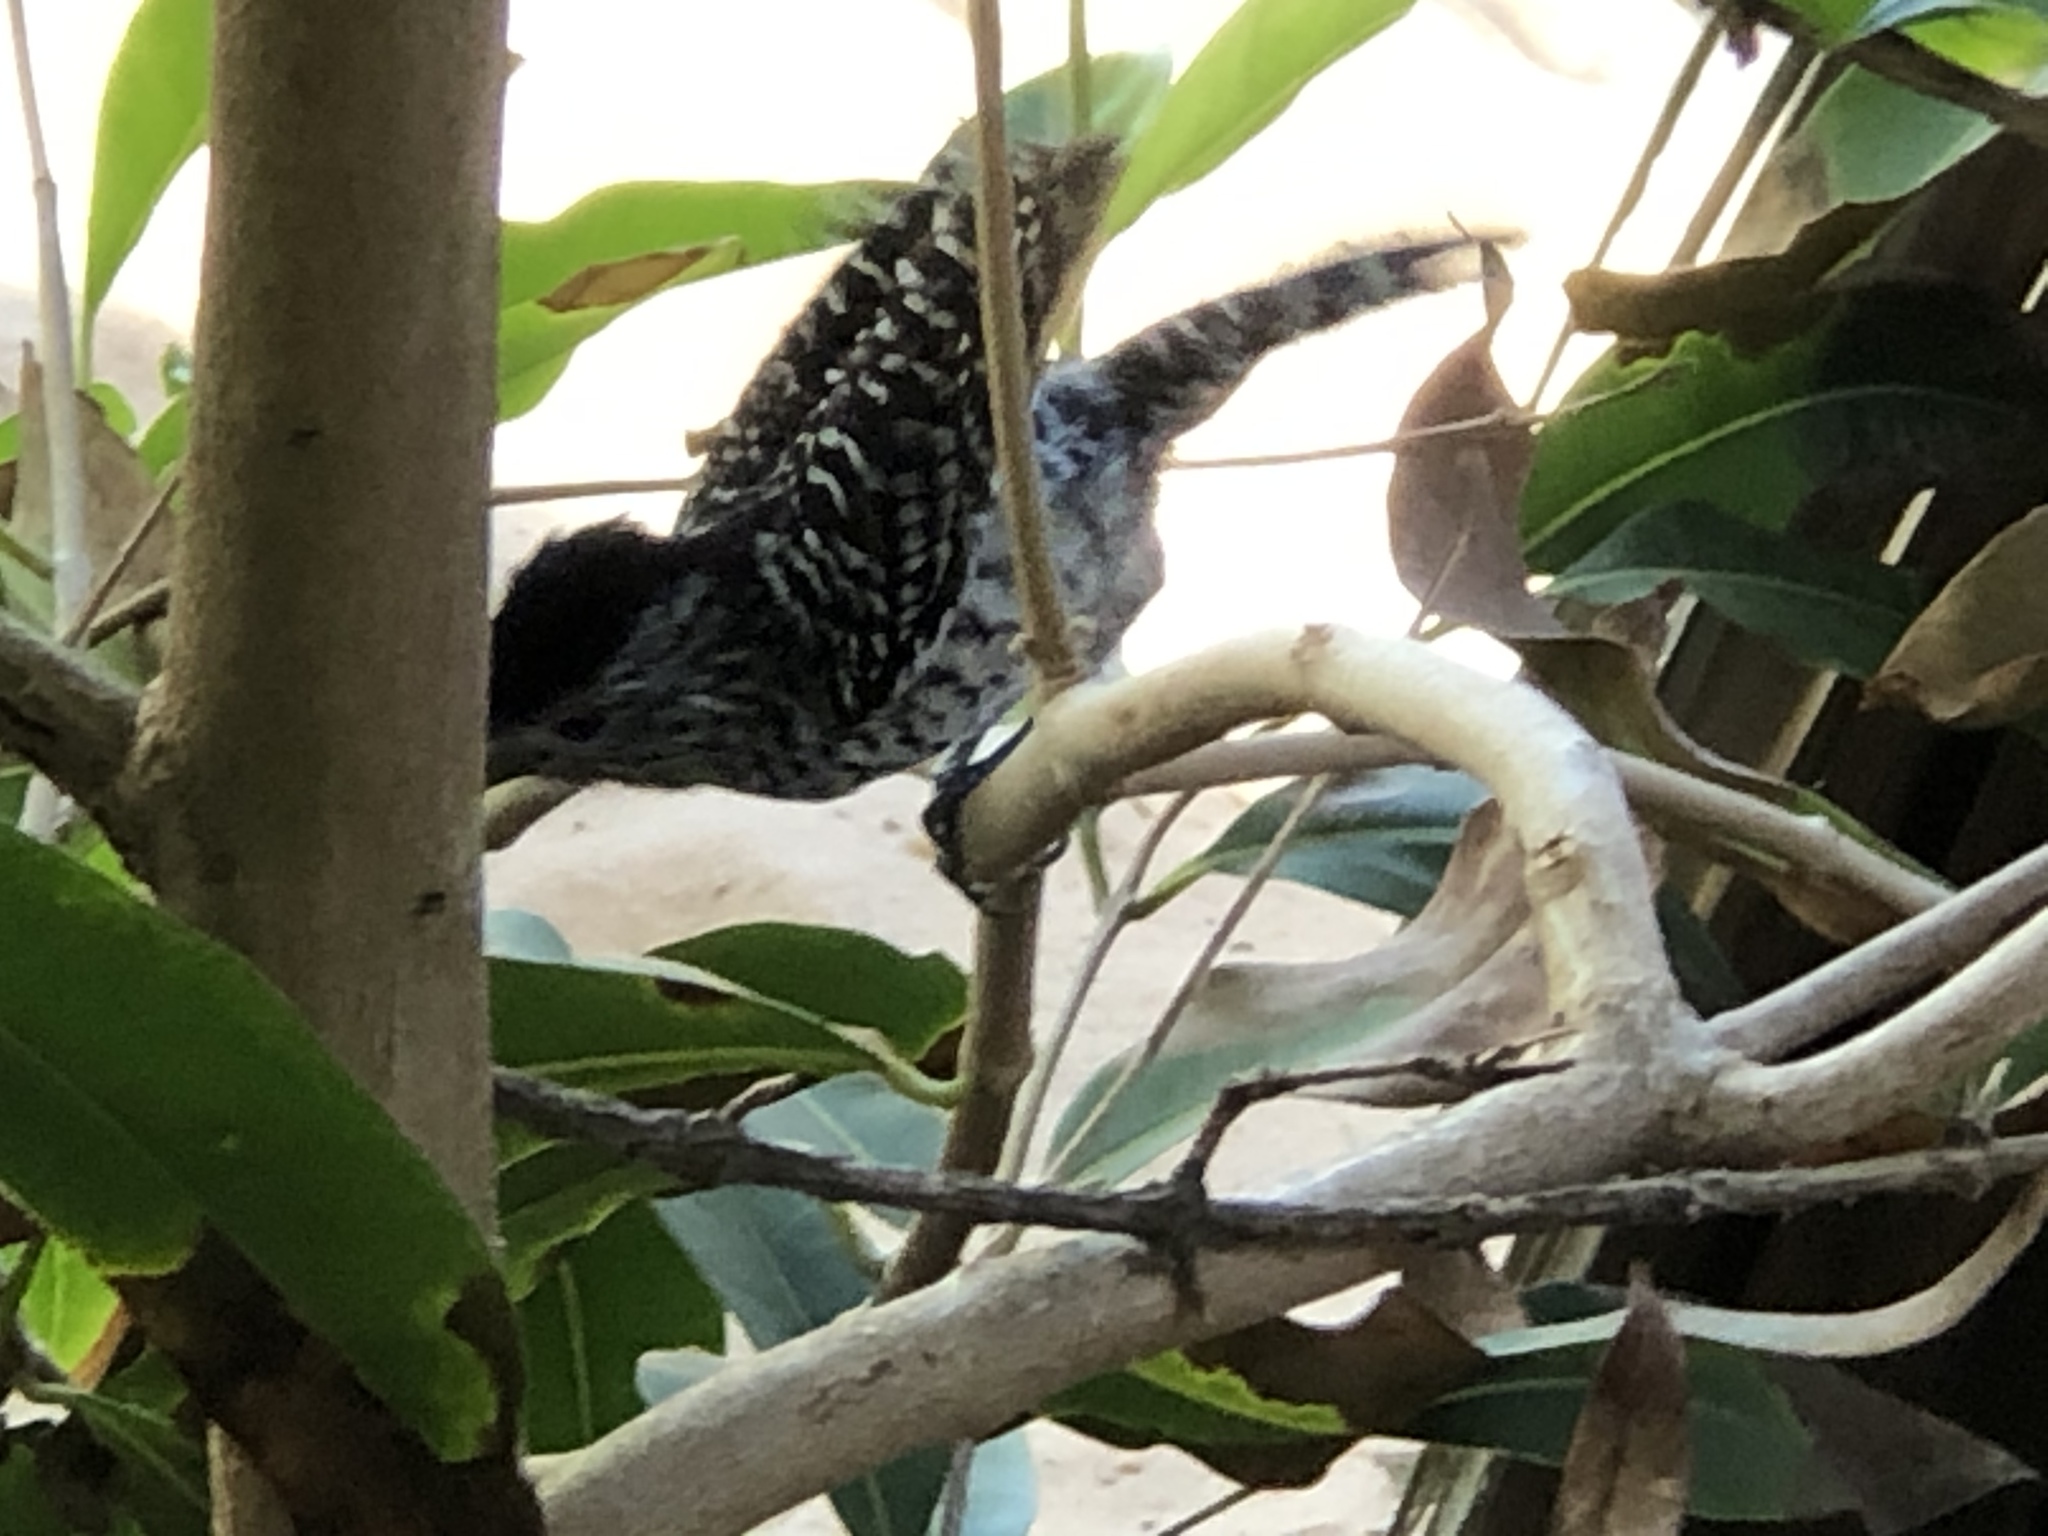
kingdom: Animalia
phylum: Chordata
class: Aves
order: Passeriformes
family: Thamnophilidae
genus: Thamnophilus
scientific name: Thamnophilus doliatus
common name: Barred antshrike
